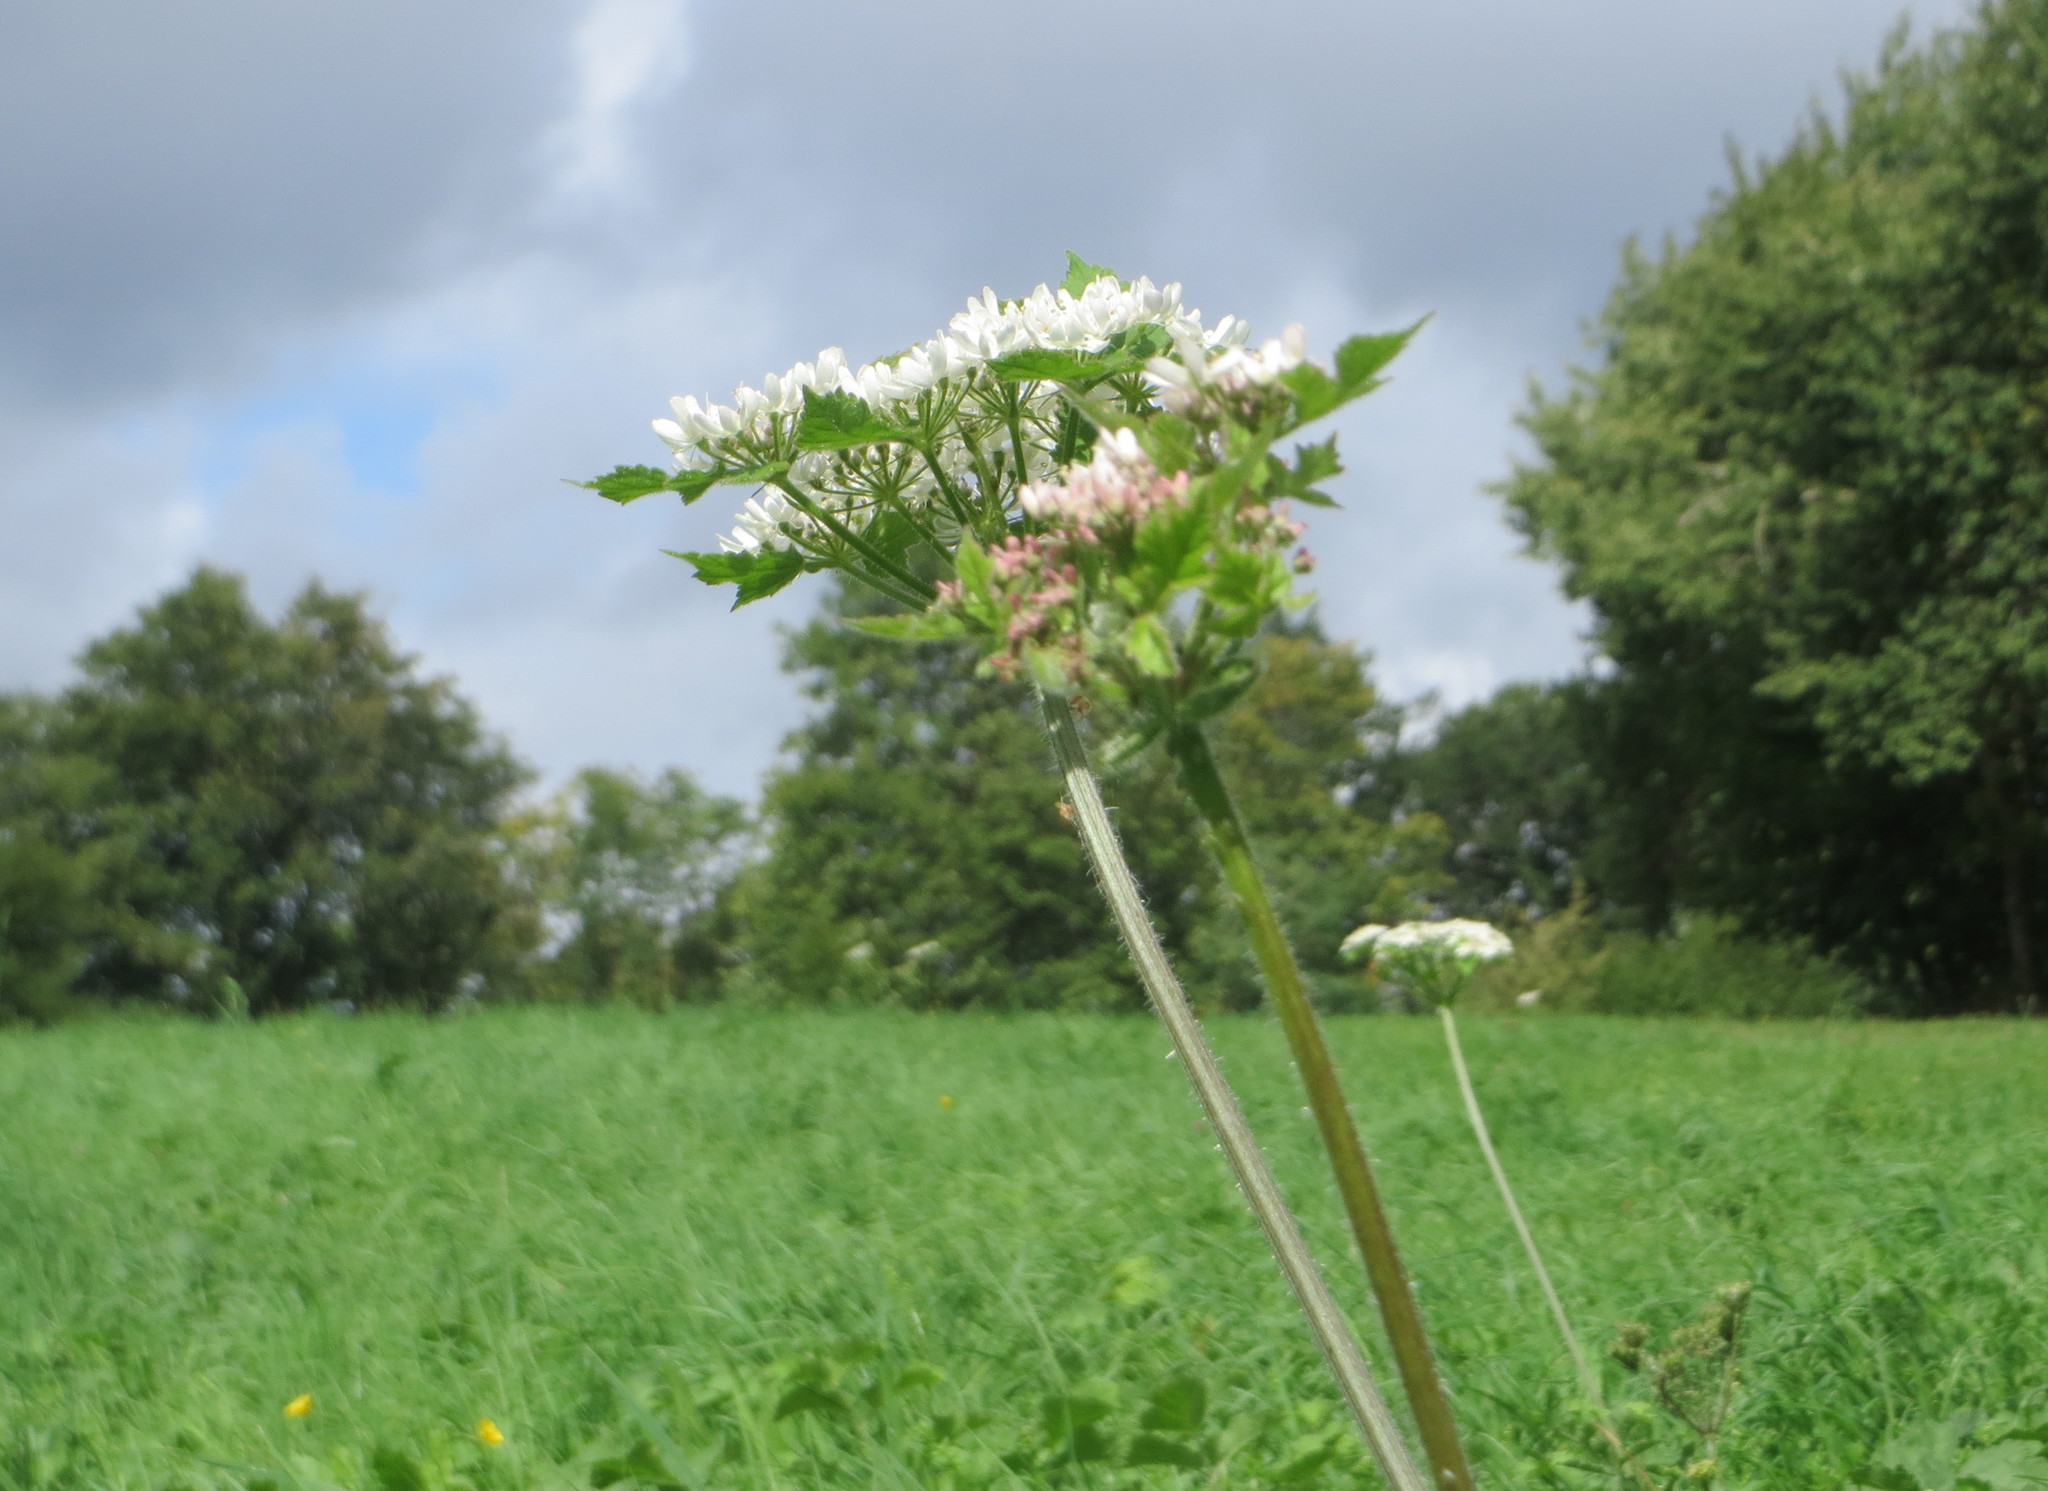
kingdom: Plantae
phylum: Tracheophyta
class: Magnoliopsida
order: Apiales
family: Apiaceae
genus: Heracleum
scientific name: Heracleum sphondylium
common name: Hogweed
